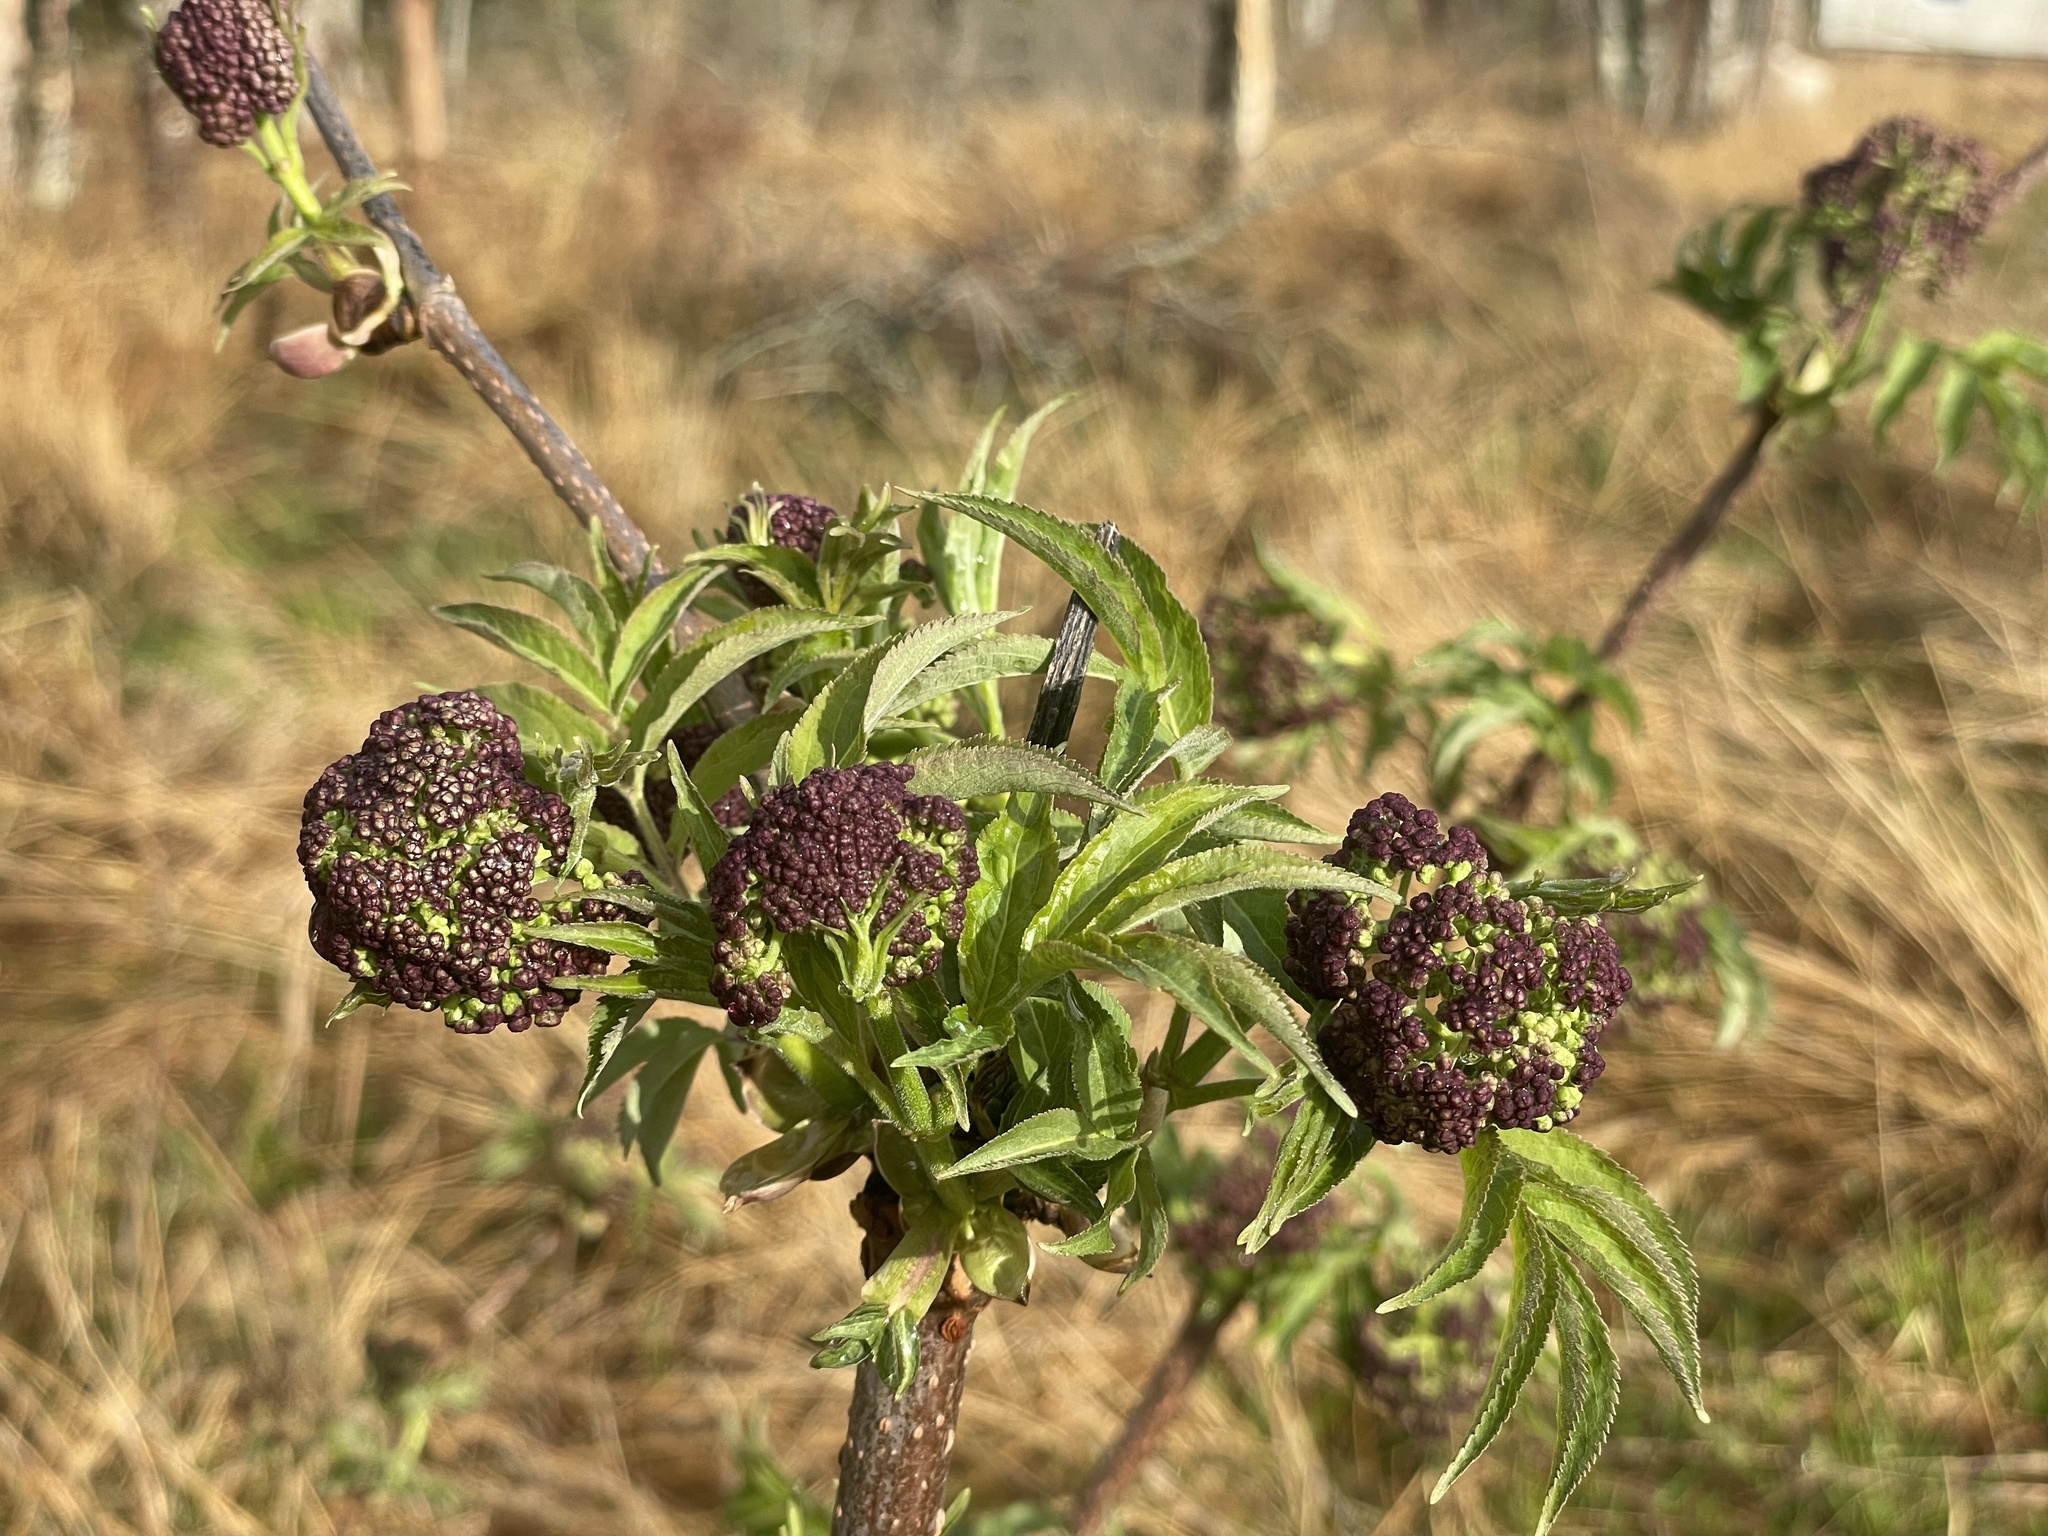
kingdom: Plantae
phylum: Tracheophyta
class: Magnoliopsida
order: Dipsacales
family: Viburnaceae
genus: Sambucus
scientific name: Sambucus racemosa
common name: Red-berried elder
